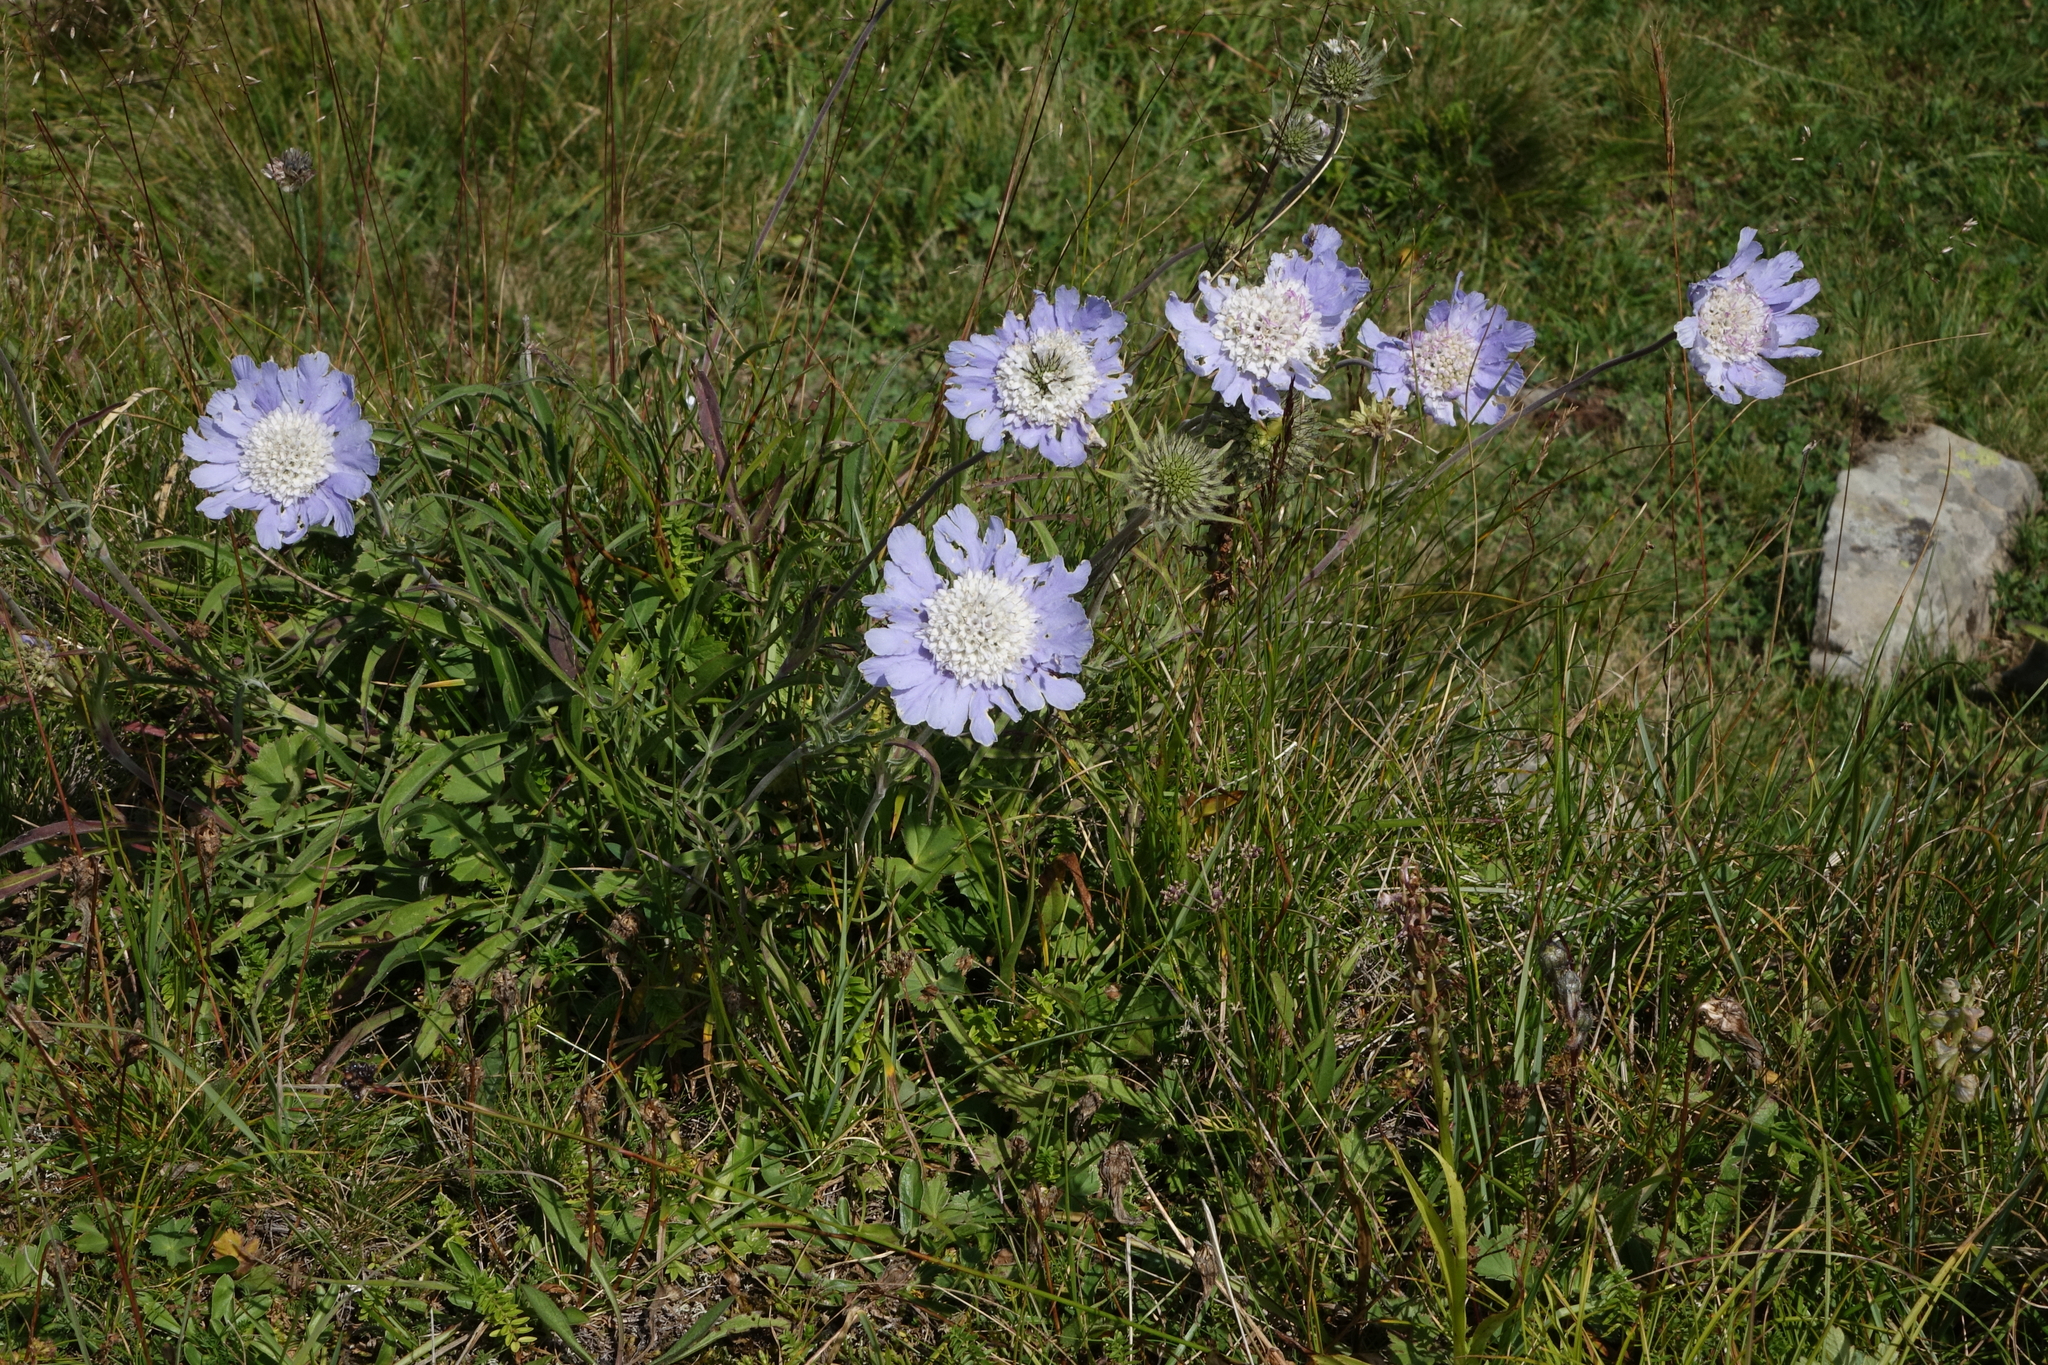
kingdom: Plantae
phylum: Tracheophyta
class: Magnoliopsida
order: Dipsacales
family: Caprifoliaceae
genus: Lomelosia
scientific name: Lomelosia caucasica
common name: Pincushion-flower
